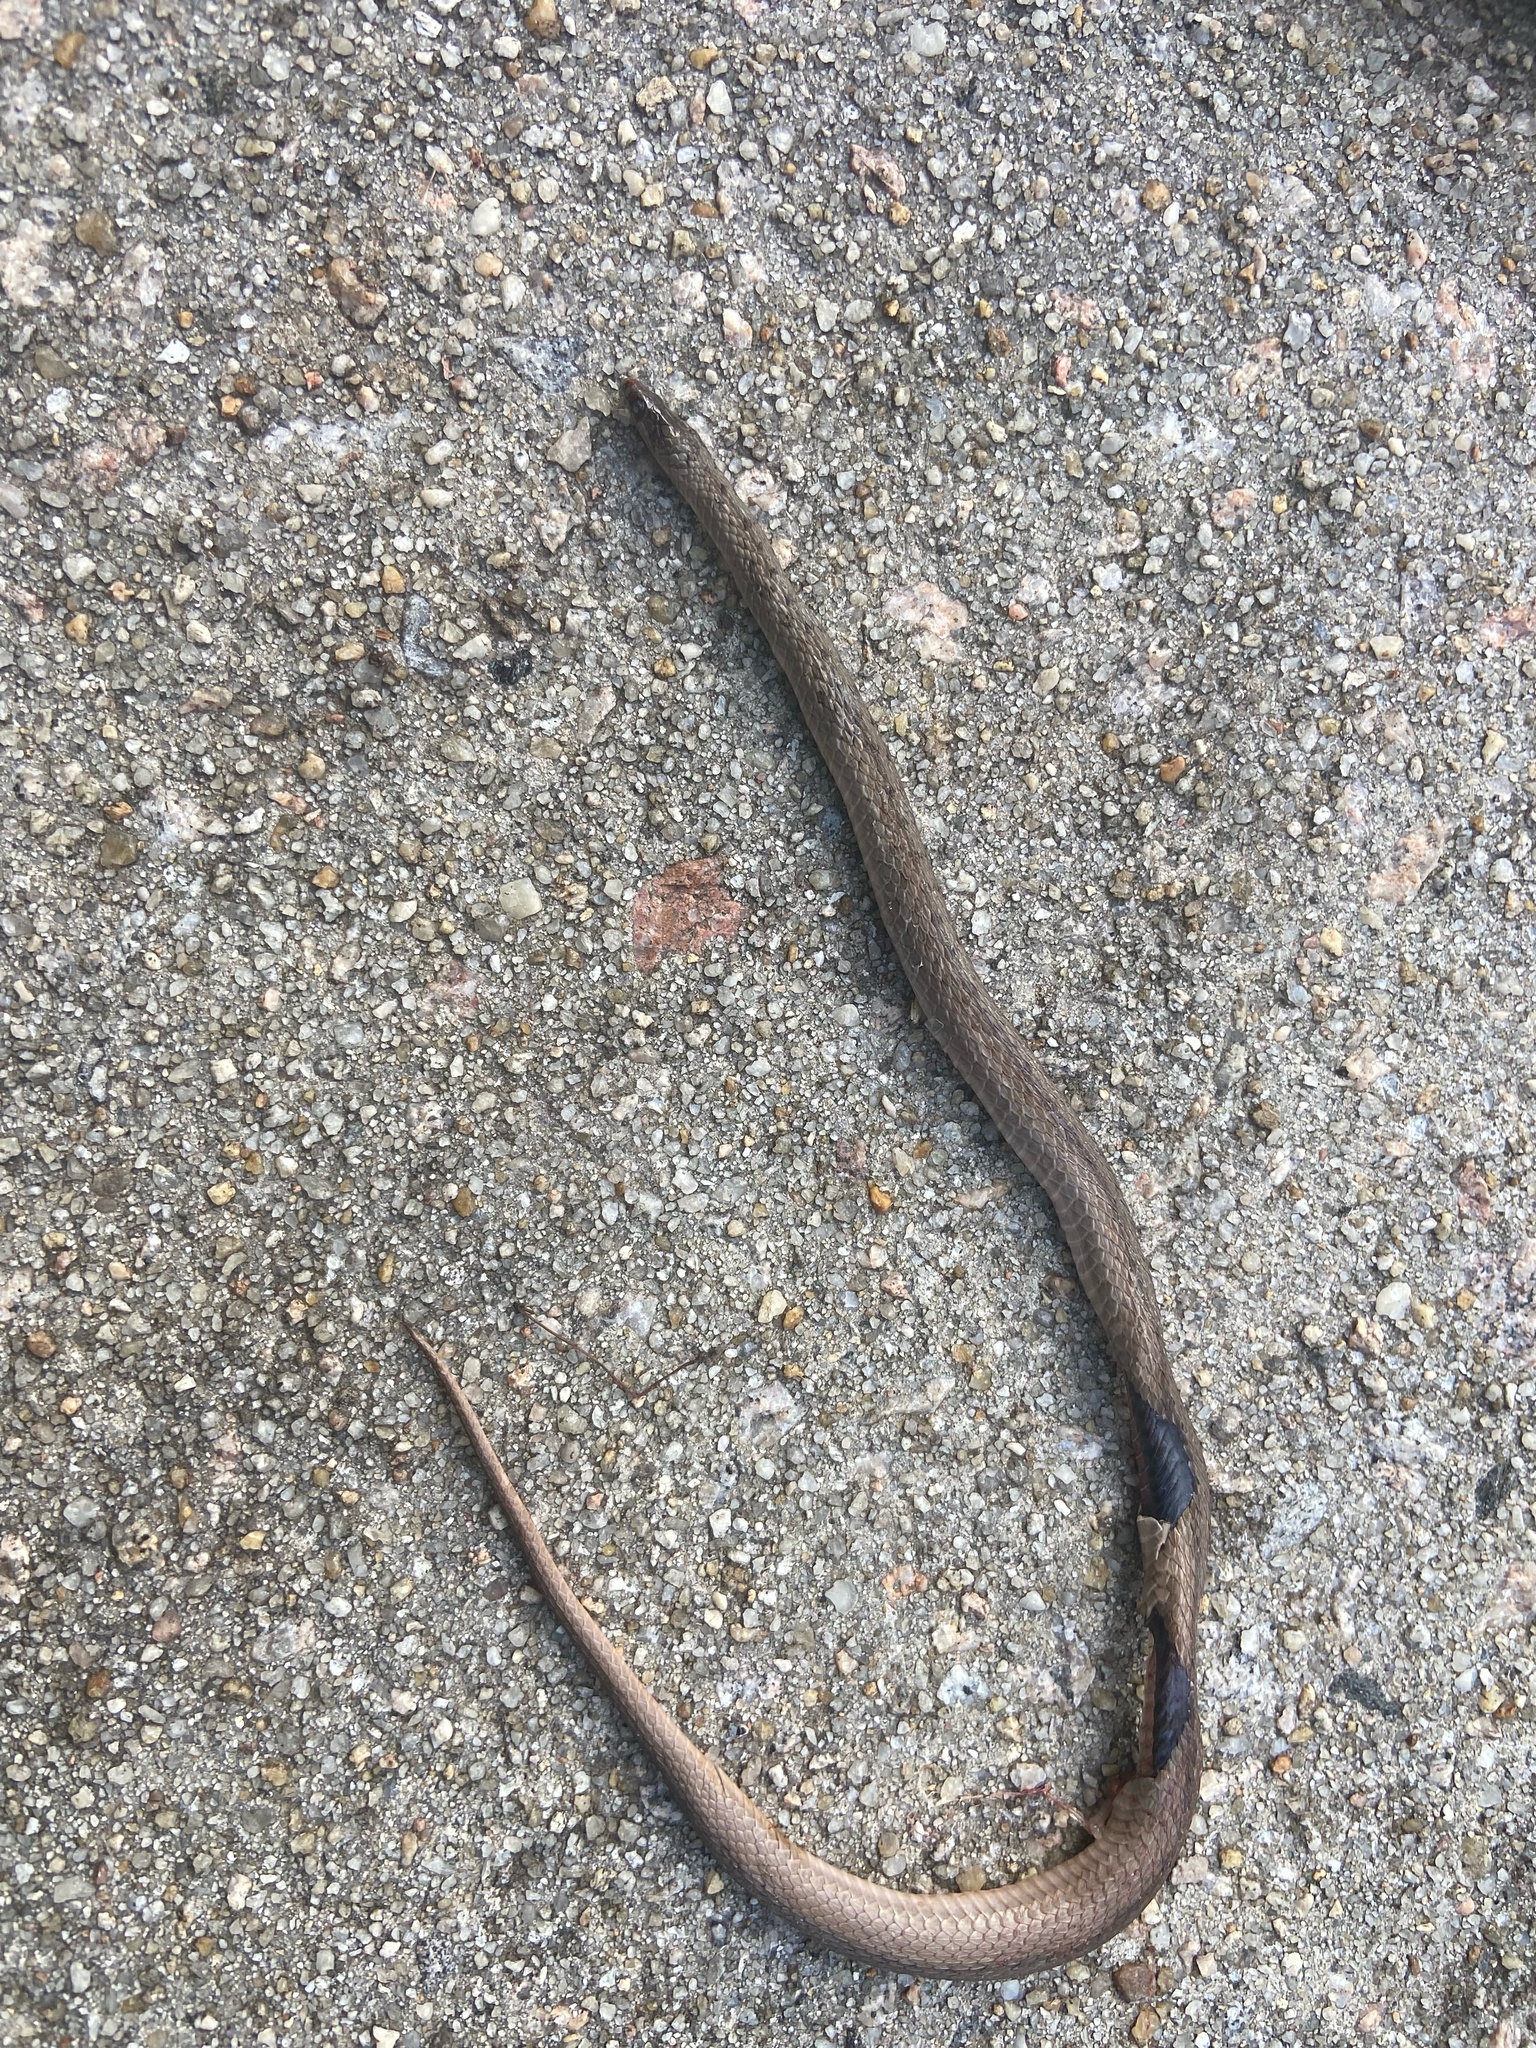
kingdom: Animalia
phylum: Chordata
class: Squamata
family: Colubridae
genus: Storeria
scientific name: Storeria dekayi
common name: (dekay’s) brown snake
